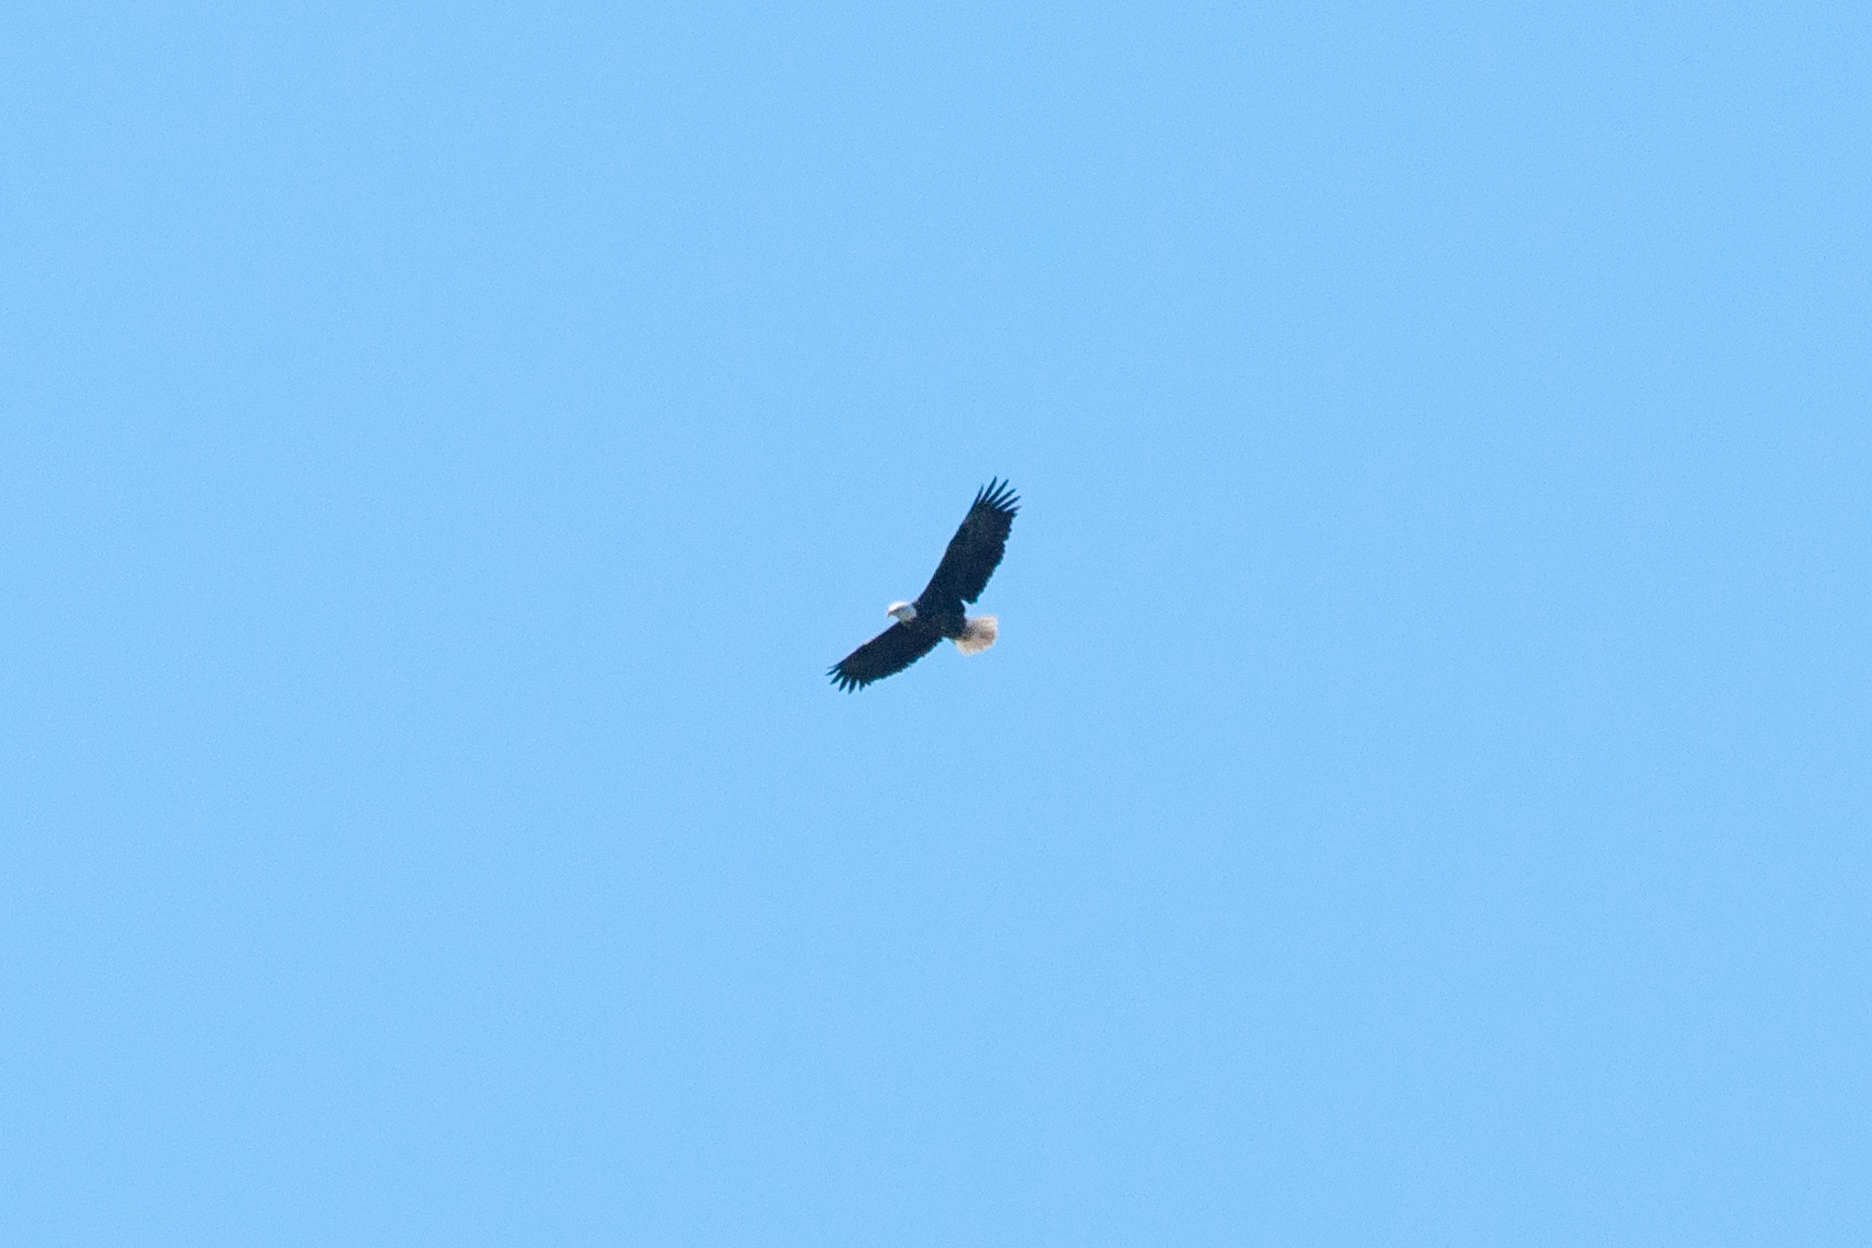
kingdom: Animalia
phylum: Chordata
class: Aves
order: Accipitriformes
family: Accipitridae
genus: Haliaeetus
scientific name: Haliaeetus leucocephalus
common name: Bald eagle
